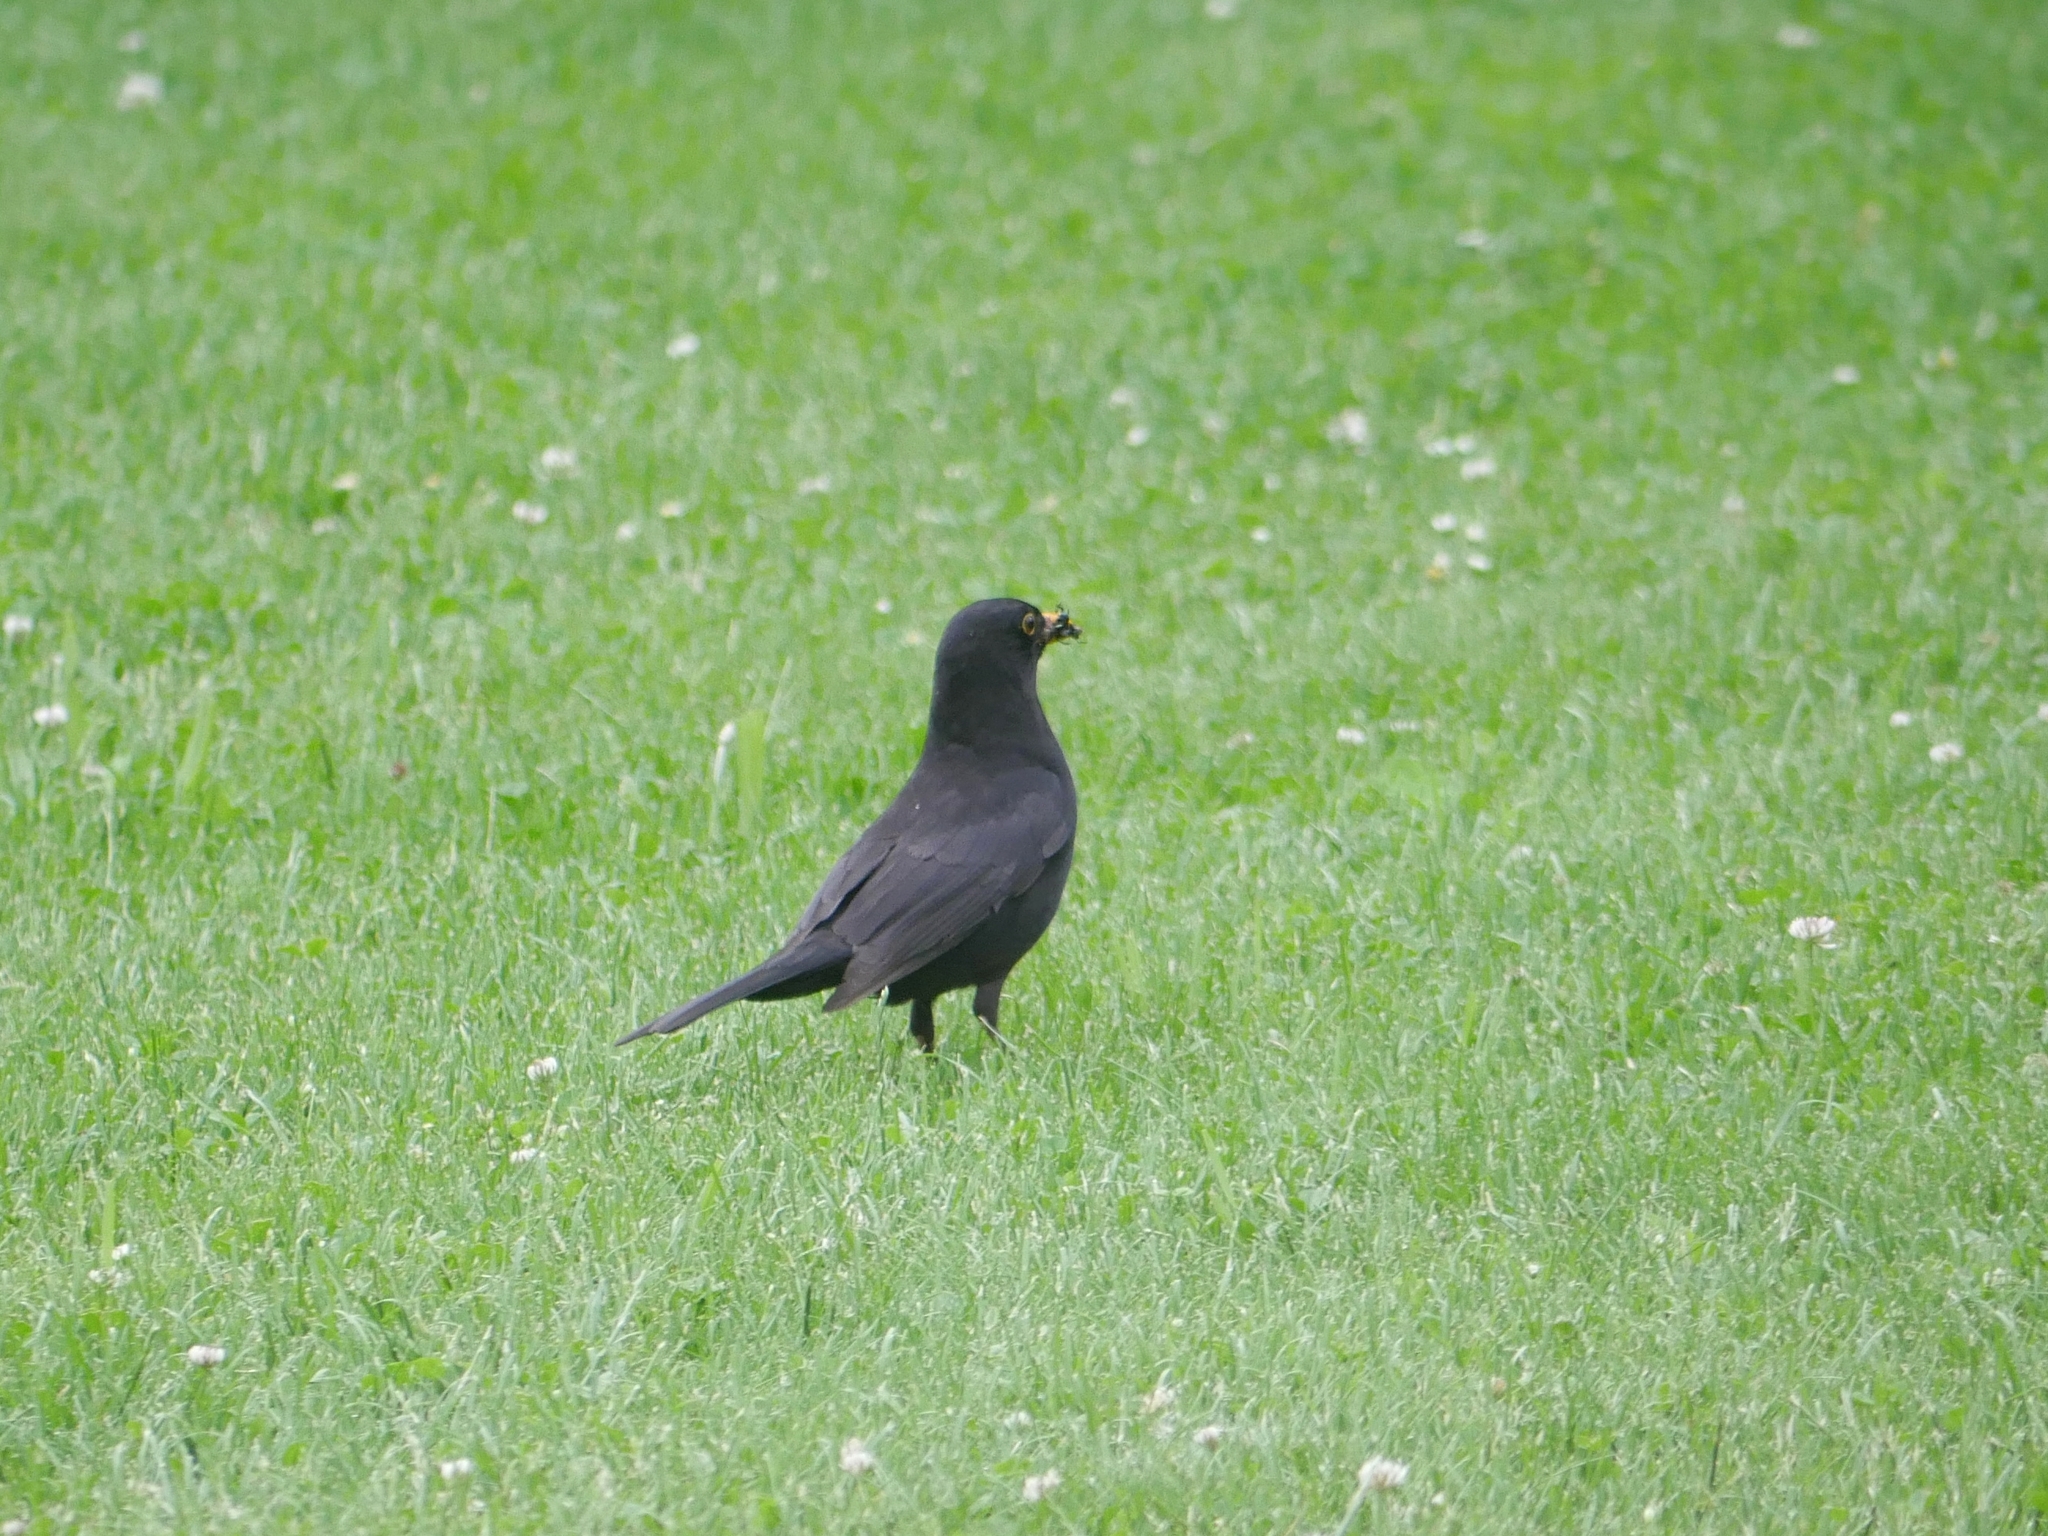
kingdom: Animalia
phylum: Chordata
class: Aves
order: Passeriformes
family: Turdidae
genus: Turdus
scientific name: Turdus merula
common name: Common blackbird
